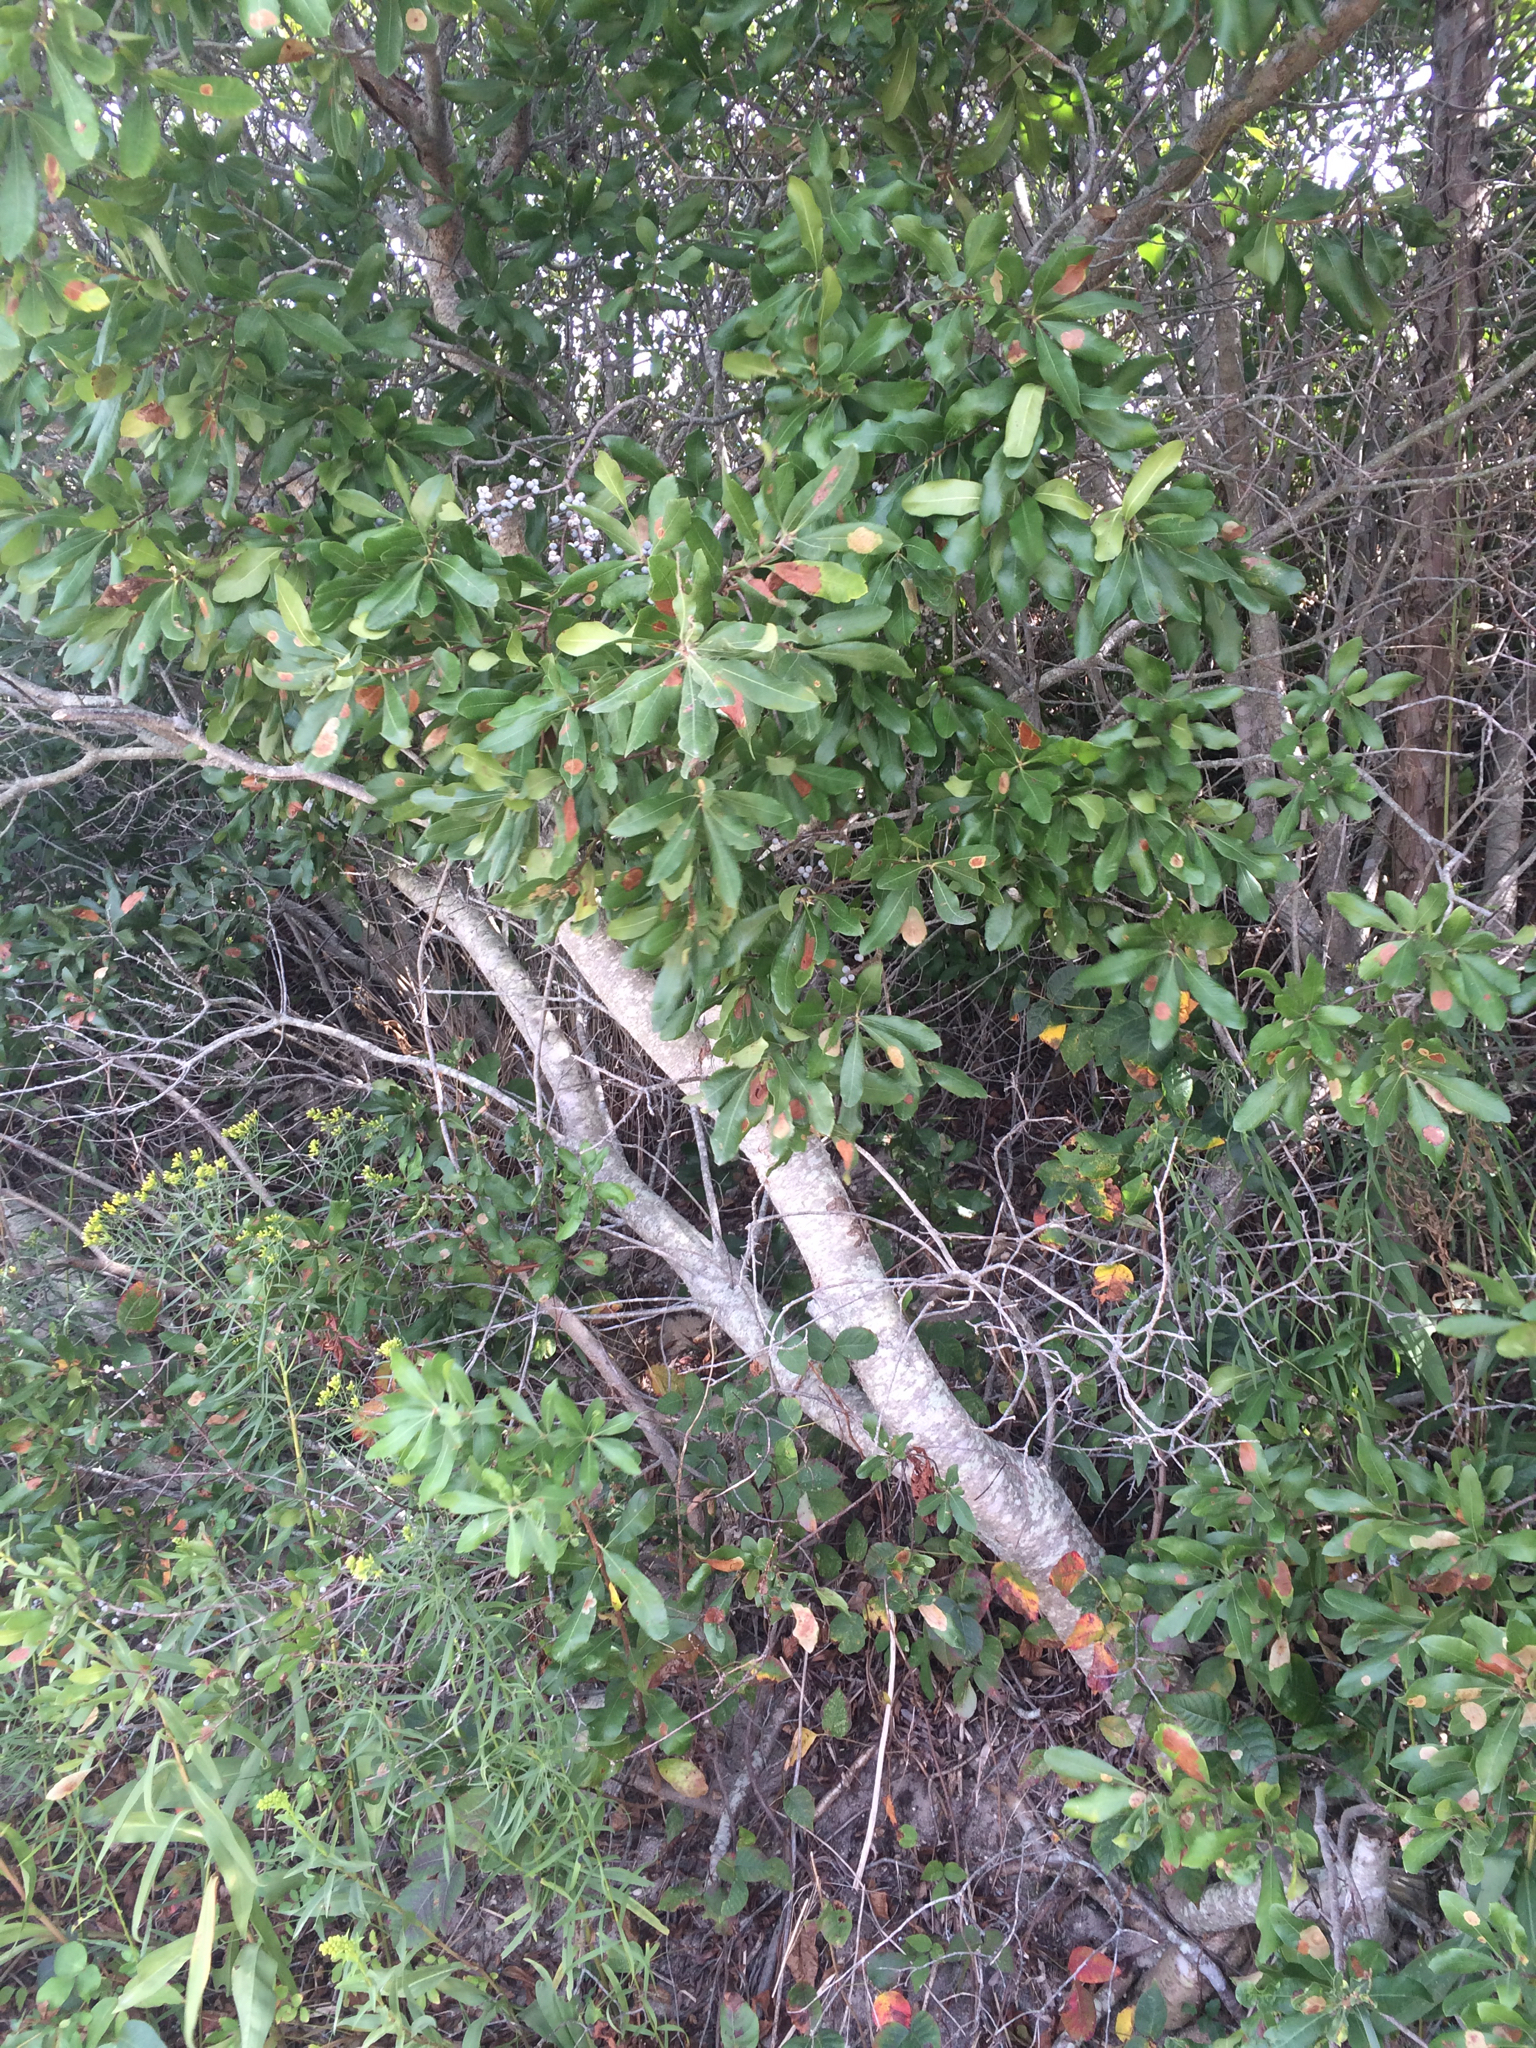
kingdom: Plantae
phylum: Tracheophyta
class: Magnoliopsida
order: Fagales
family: Myricaceae
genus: Morella
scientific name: Morella pensylvanica
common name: Northern bayberry
